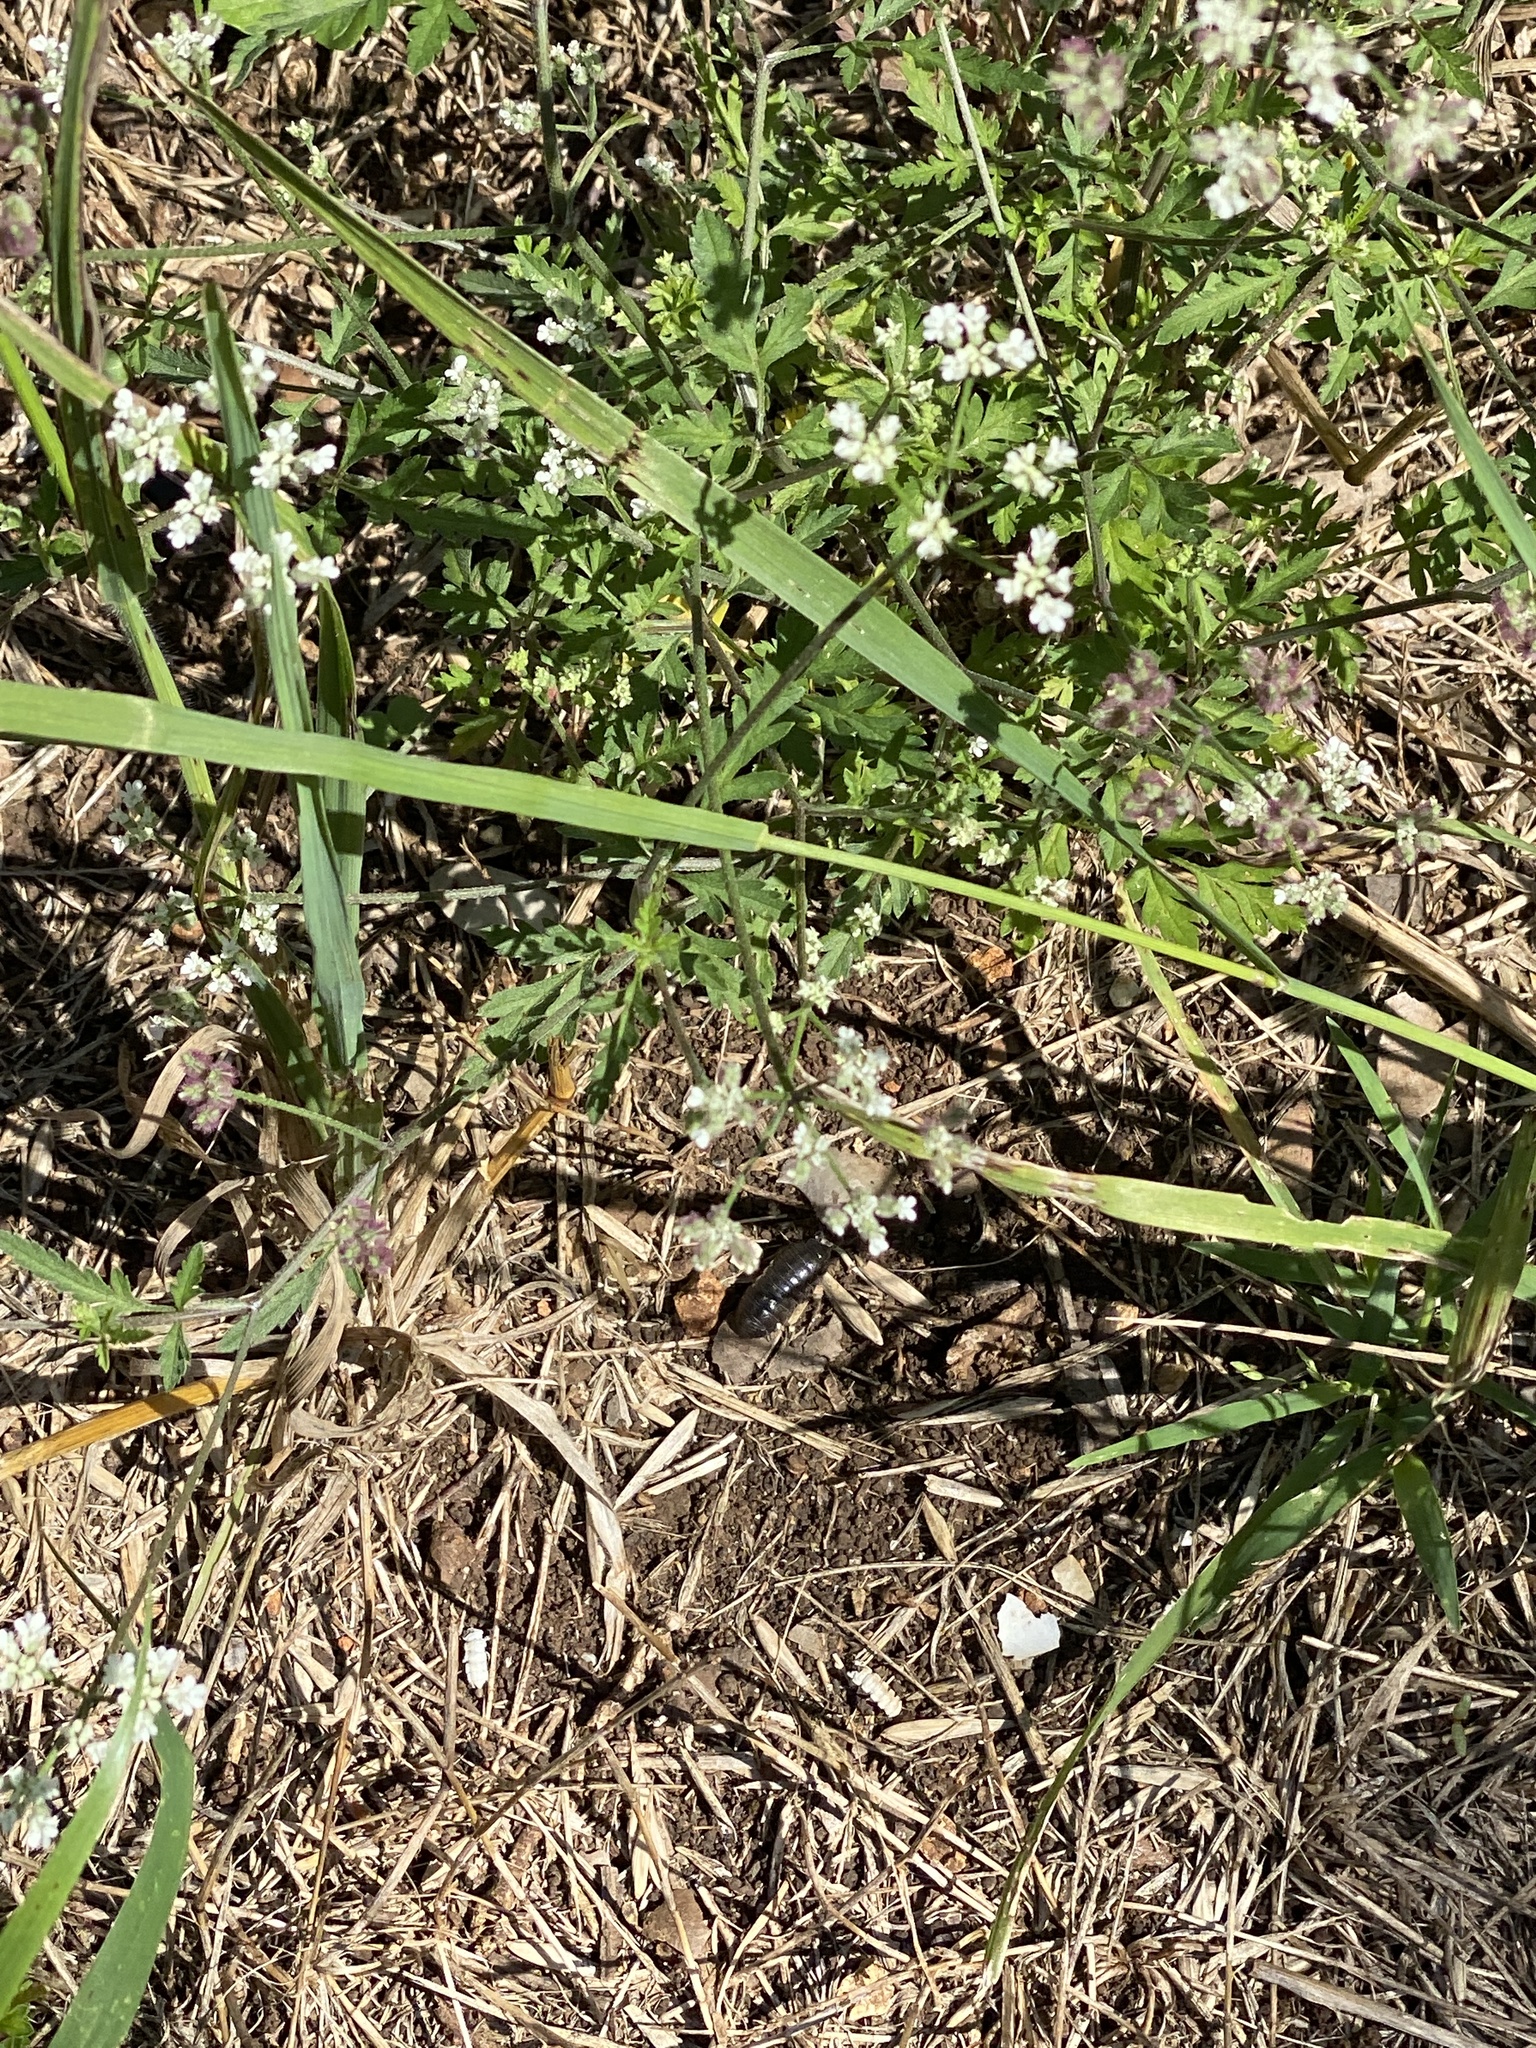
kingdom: Plantae
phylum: Tracheophyta
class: Magnoliopsida
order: Apiales
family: Apiaceae
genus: Torilis
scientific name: Torilis arvensis
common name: Spreading hedge-parsley
